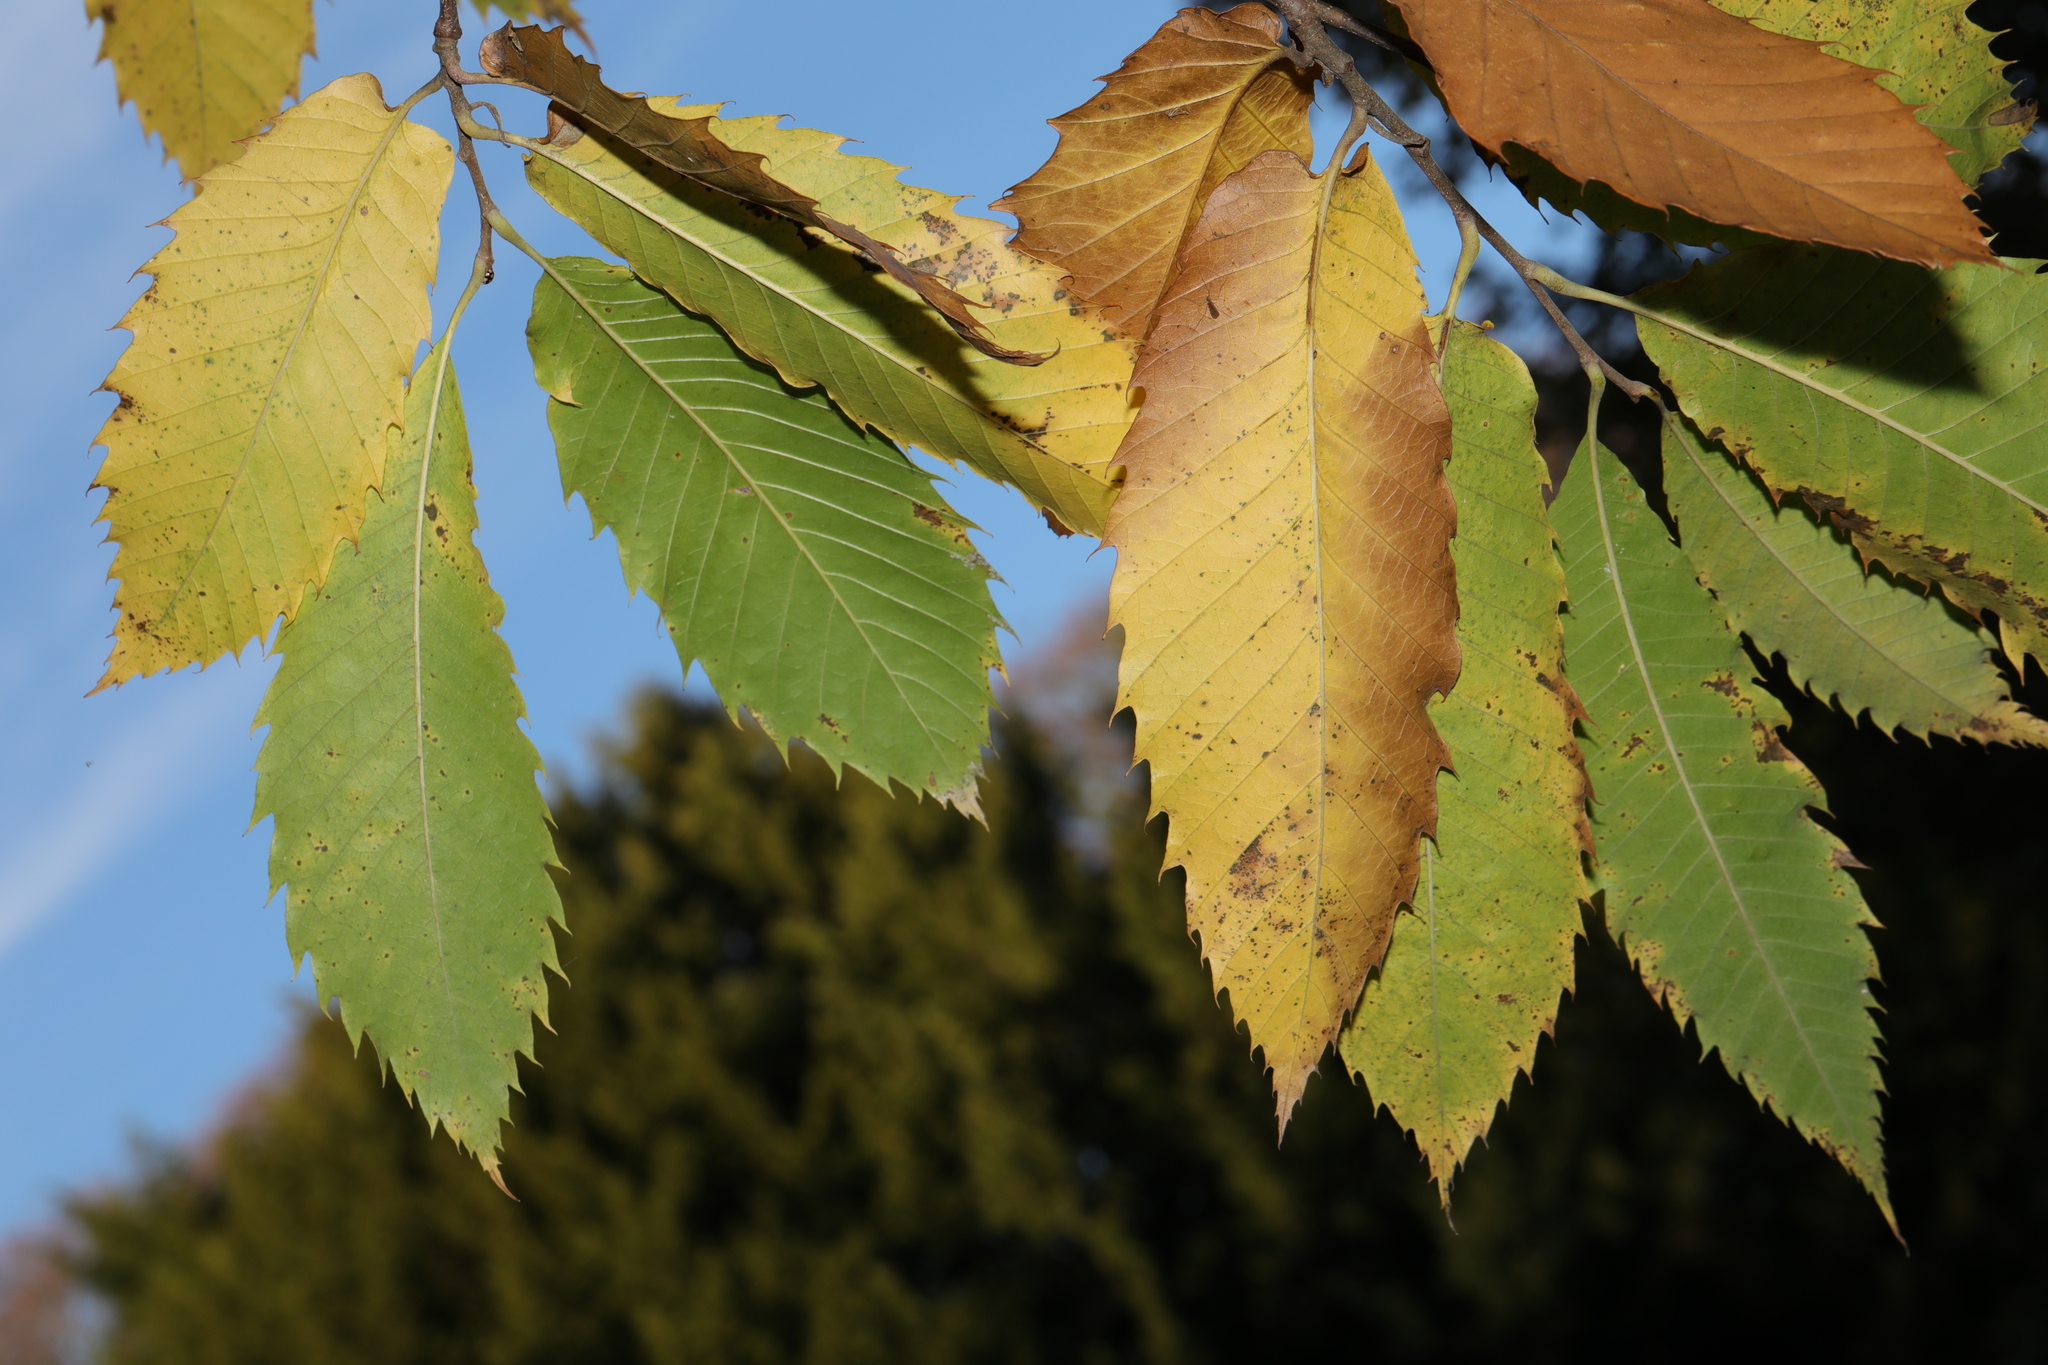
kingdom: Plantae
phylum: Tracheophyta
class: Magnoliopsida
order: Fagales
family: Fagaceae
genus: Castanea
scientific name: Castanea sativa
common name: Sweet chestnut
